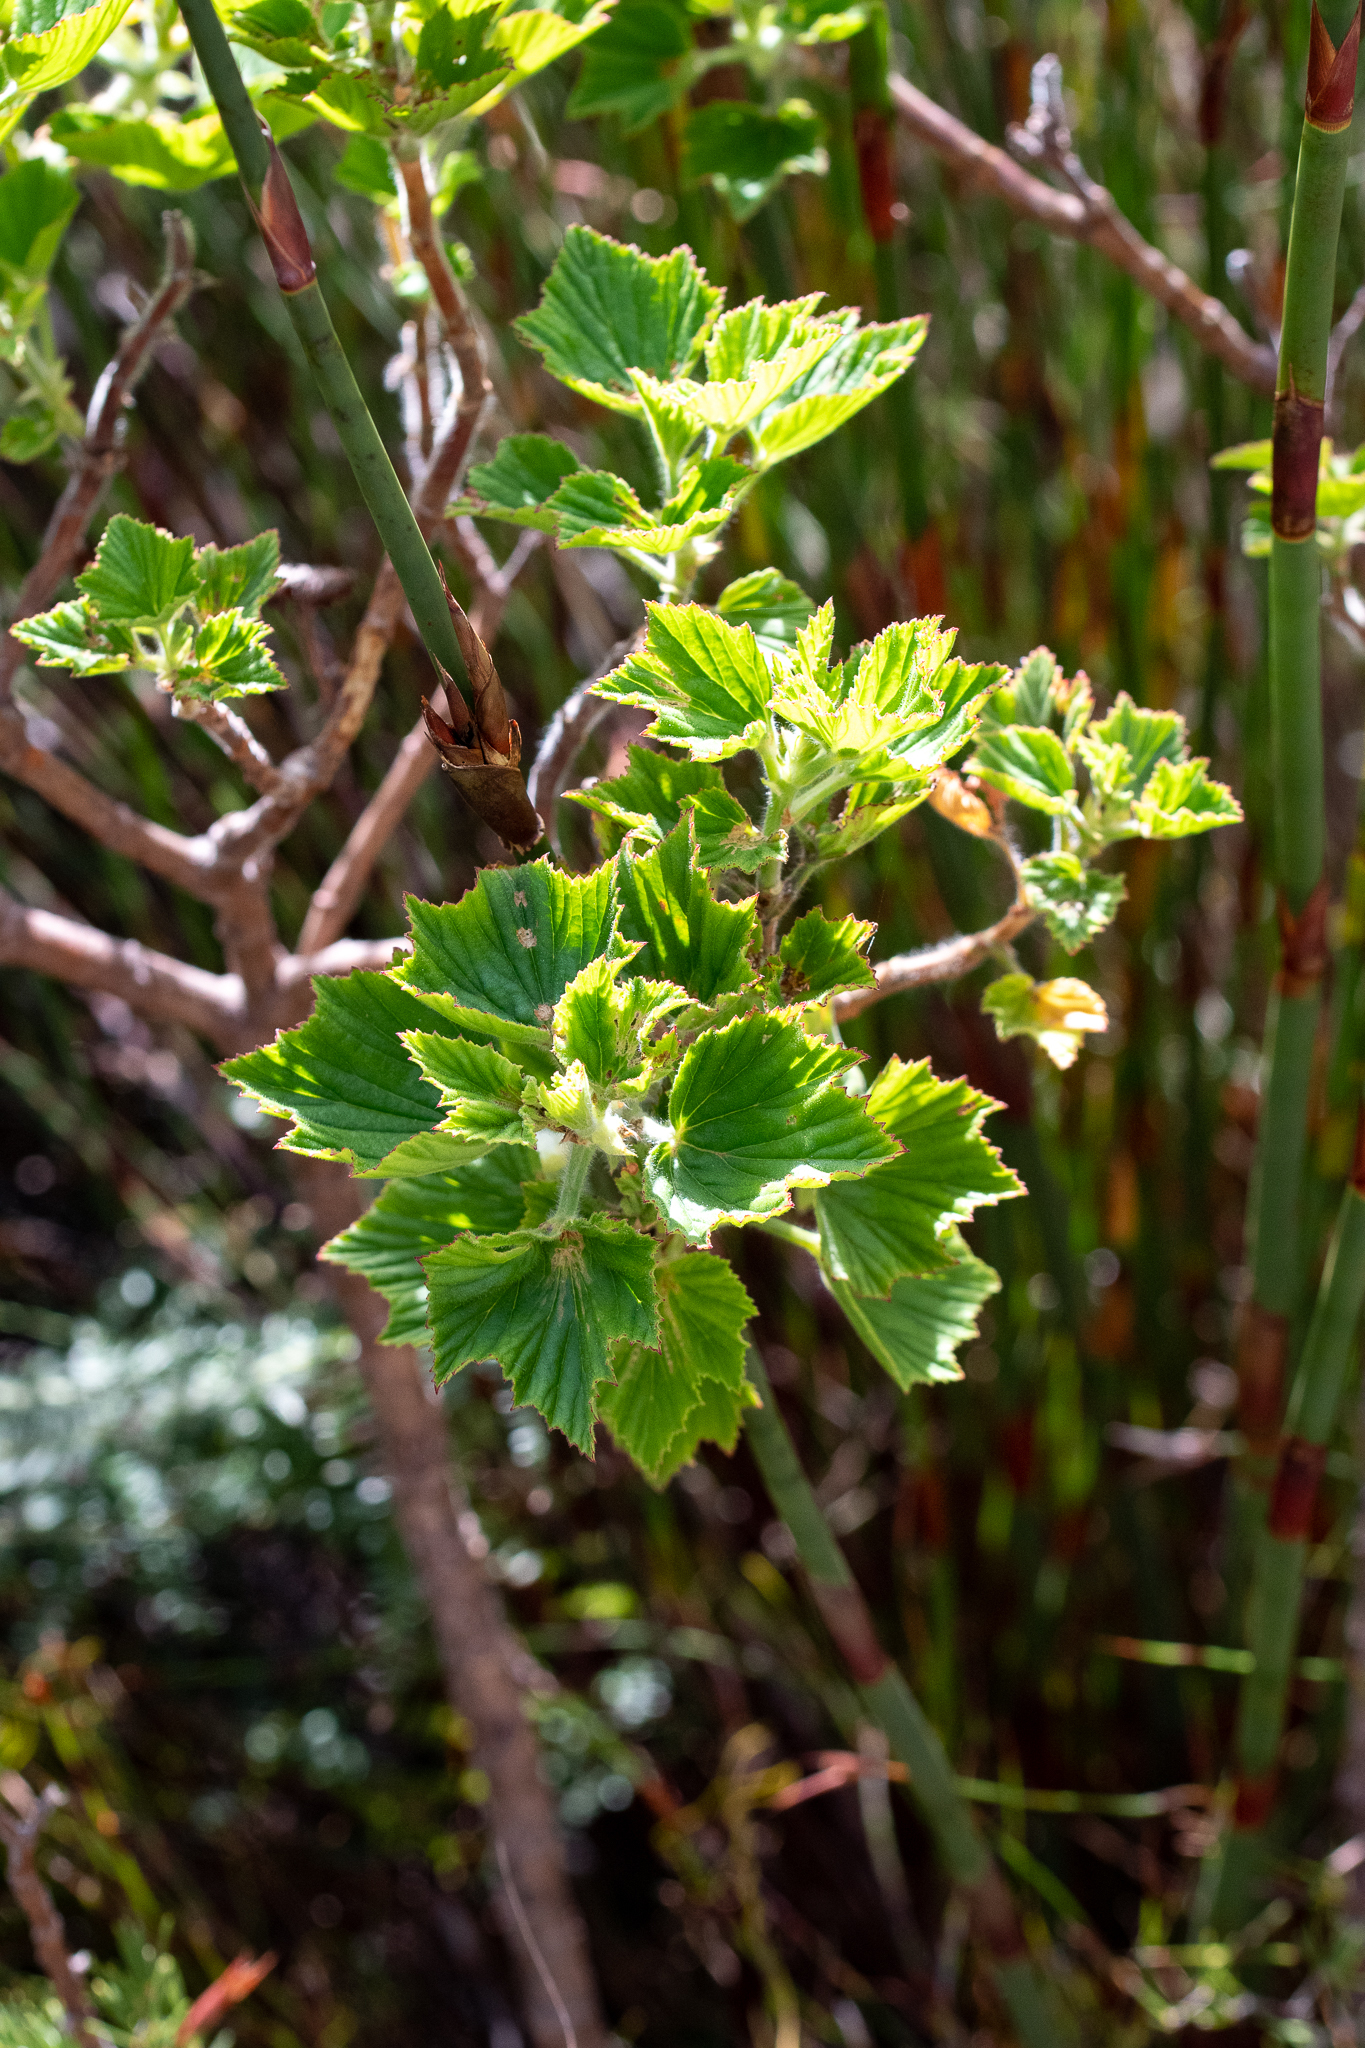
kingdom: Plantae
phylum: Tracheophyta
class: Magnoliopsida
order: Geraniales
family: Geraniaceae
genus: Pelargonium
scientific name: Pelargonium cucullatum
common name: Tree pelargonium
